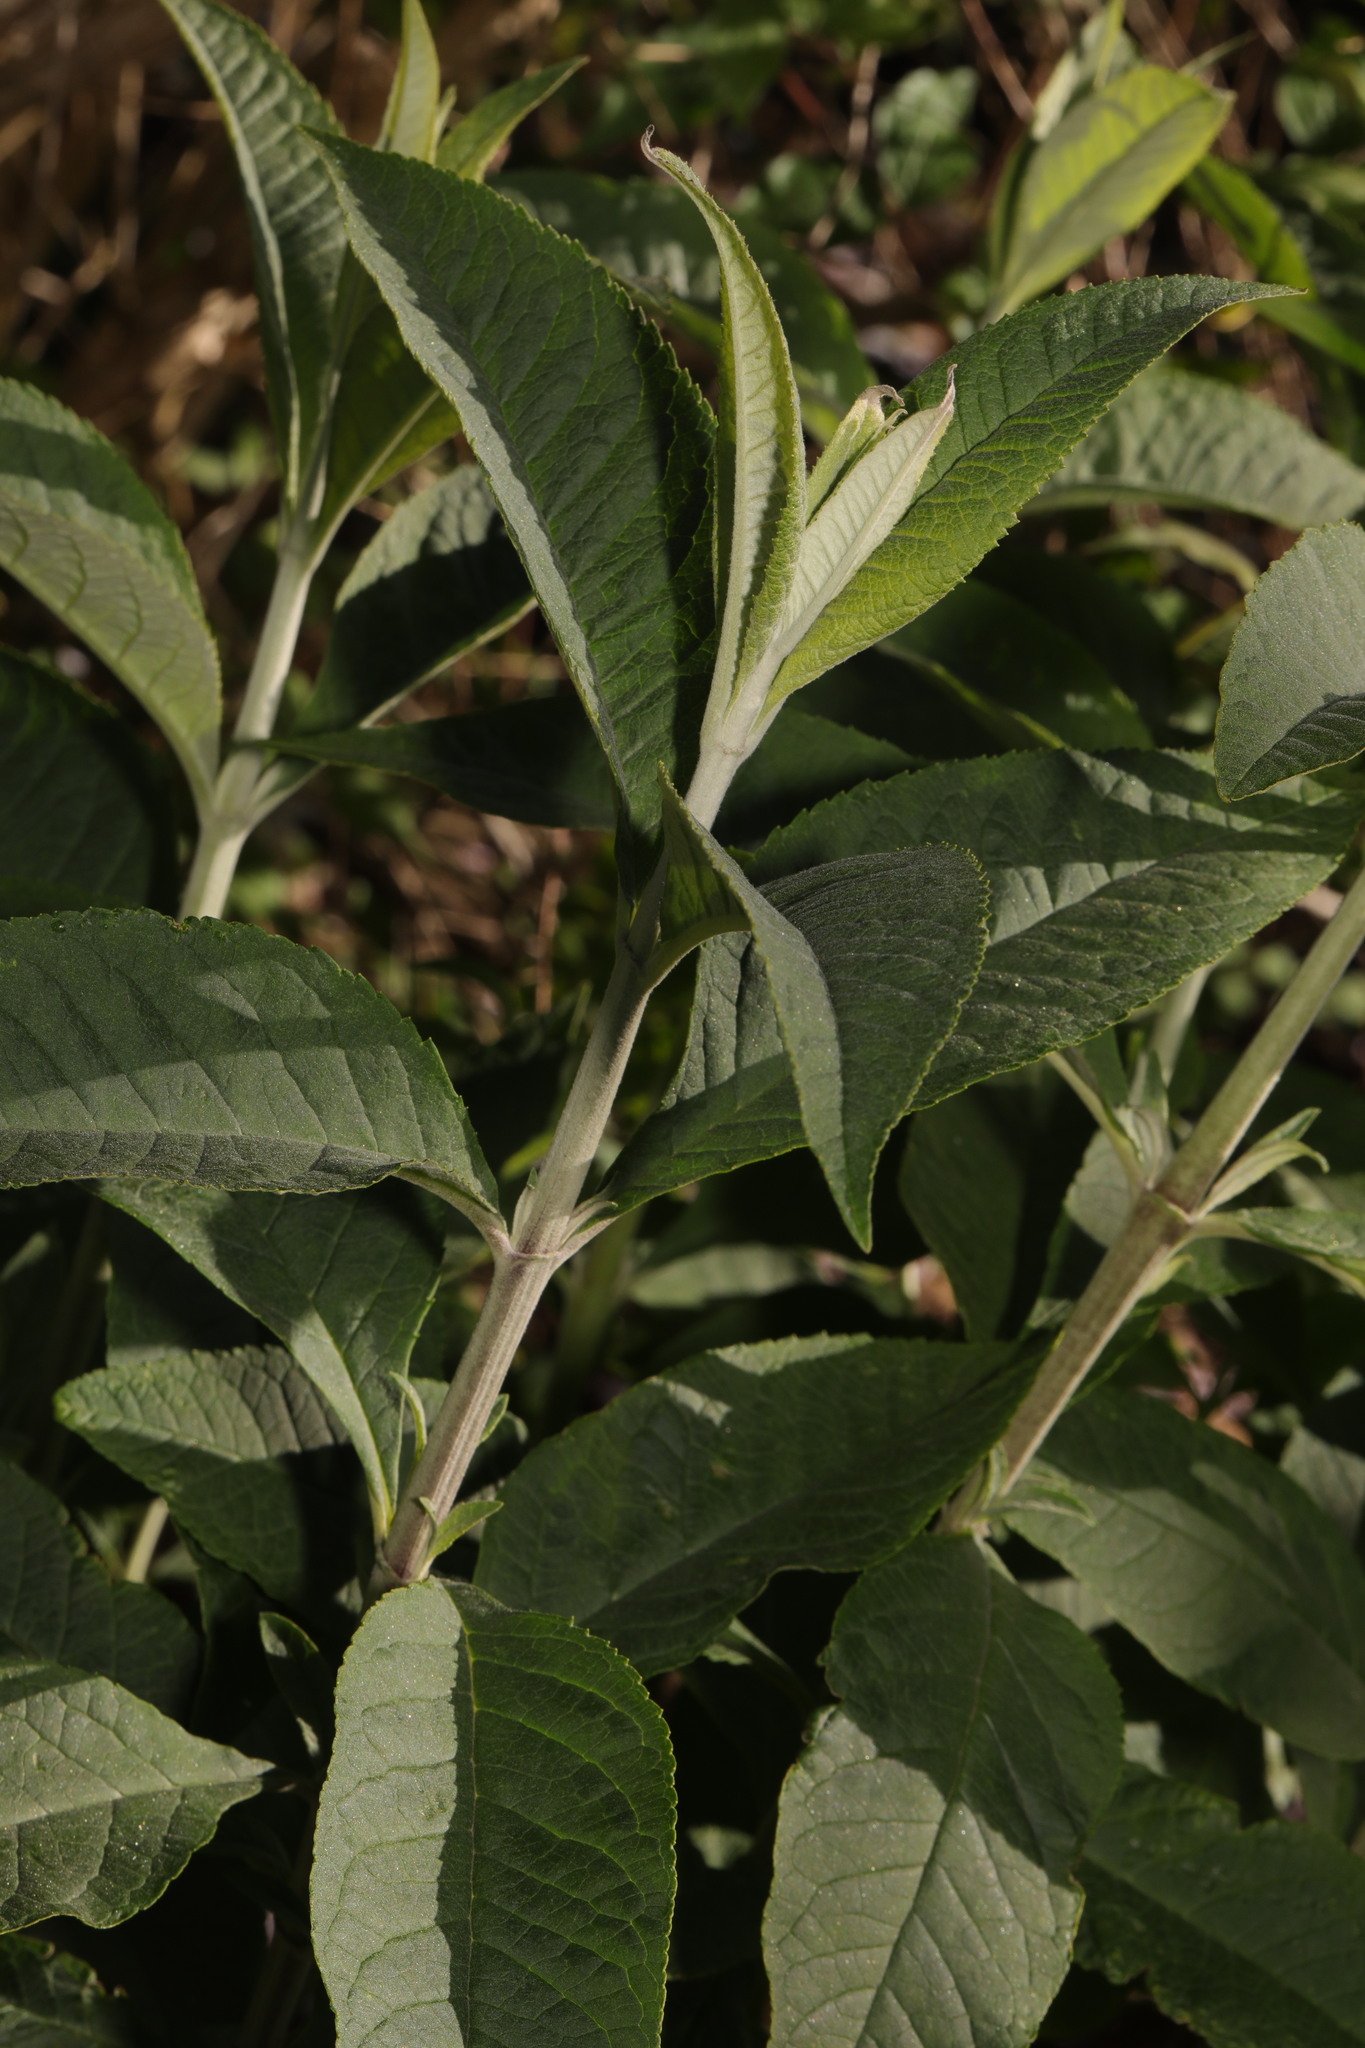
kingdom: Plantae
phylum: Tracheophyta
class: Magnoliopsida
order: Lamiales
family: Scrophulariaceae
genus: Buddleja
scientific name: Buddleja davidii
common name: Butterfly-bush
